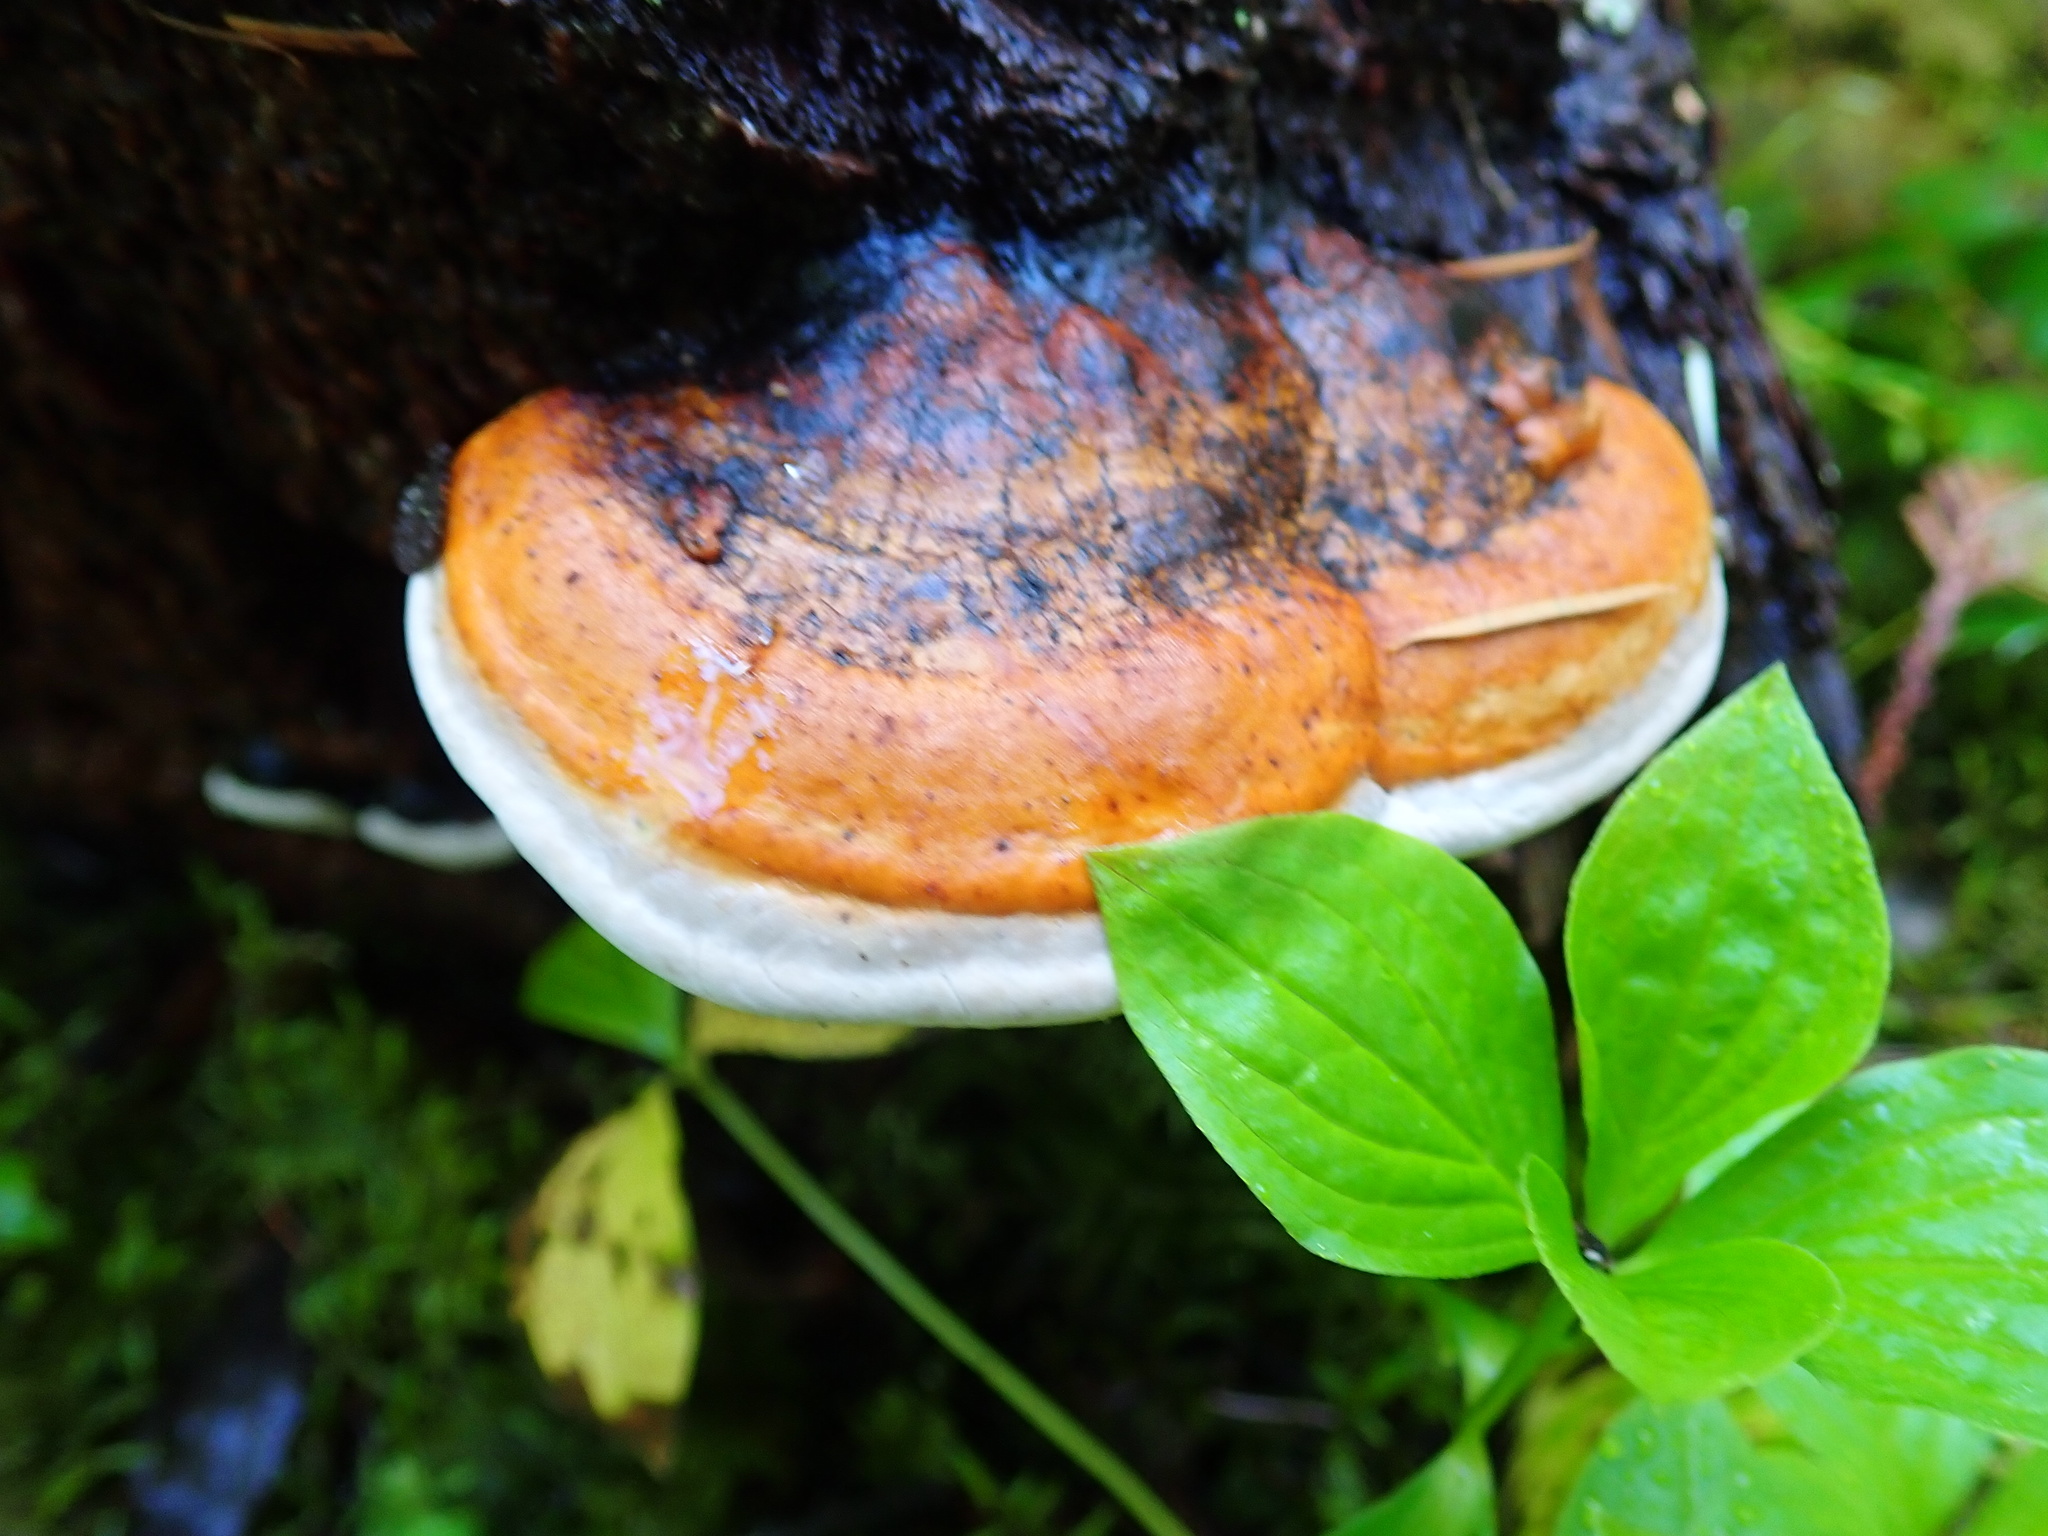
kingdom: Fungi
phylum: Basidiomycota
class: Agaricomycetes
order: Polyporales
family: Fomitopsidaceae
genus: Fomitopsis
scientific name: Fomitopsis mounceae
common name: Northern red belt
